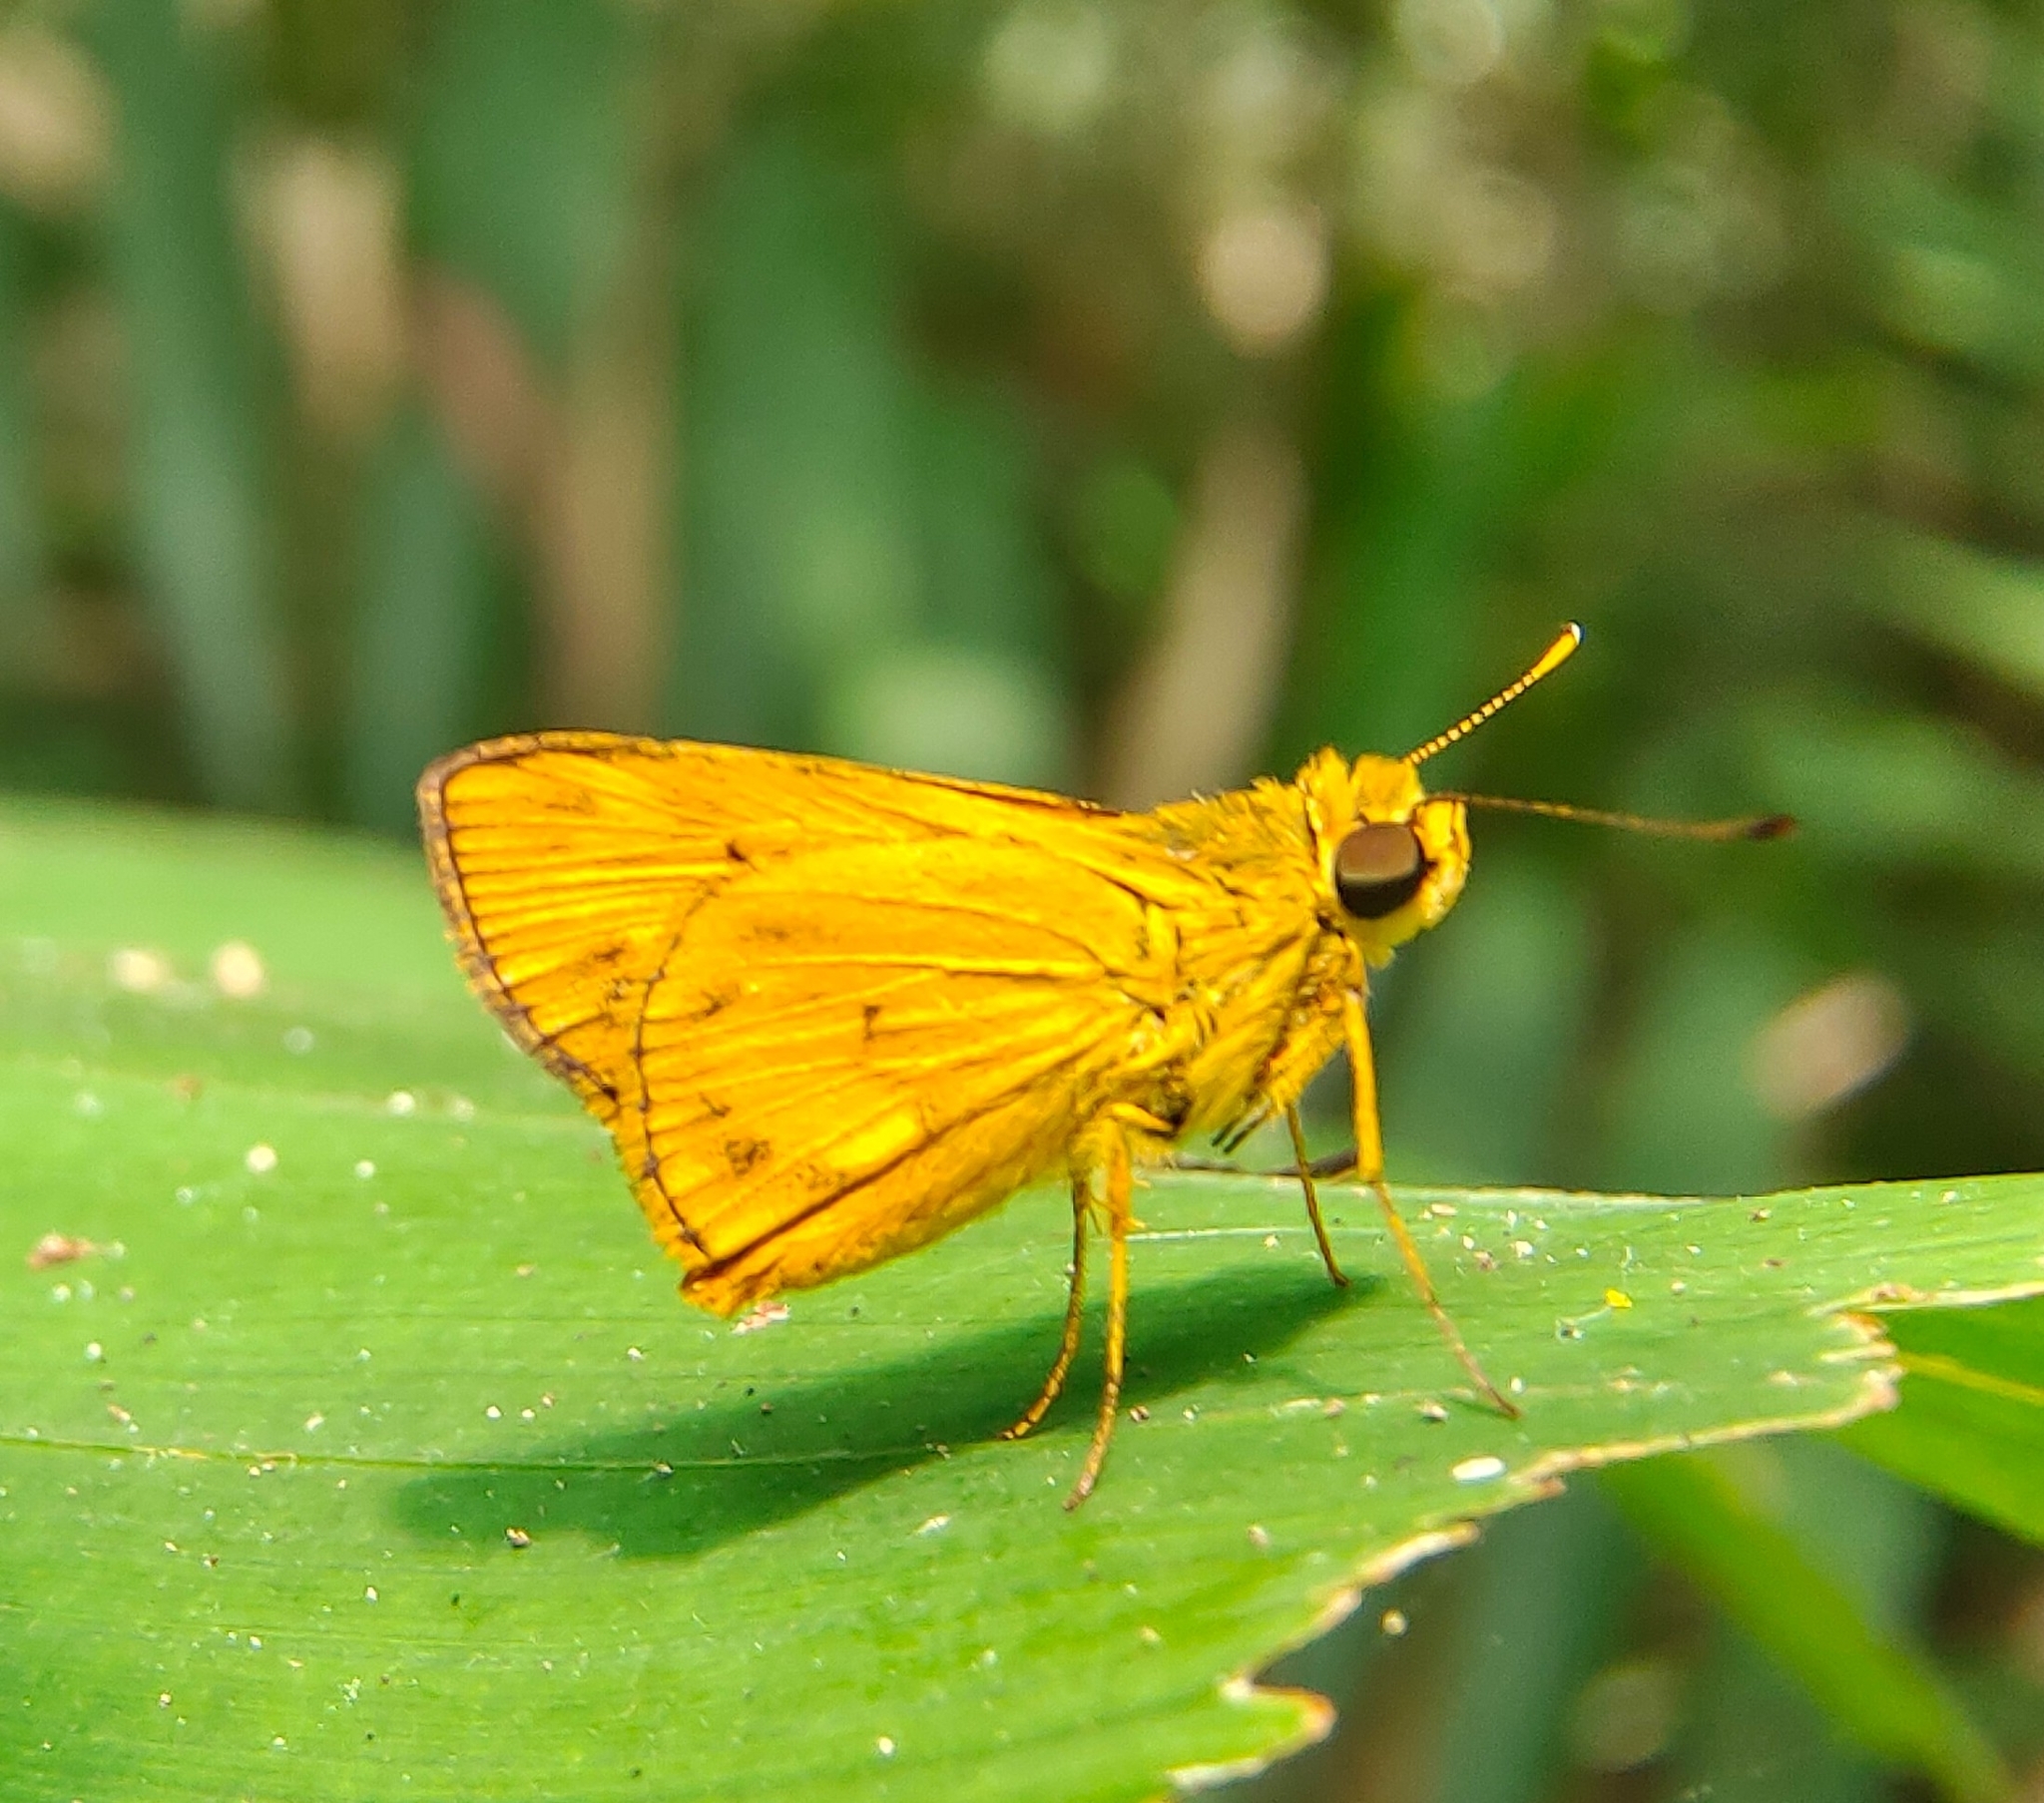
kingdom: Animalia
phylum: Arthropoda
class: Insecta
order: Lepidoptera
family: Hesperiidae
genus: Oriens
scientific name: Oriens gola
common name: Common dartlet
